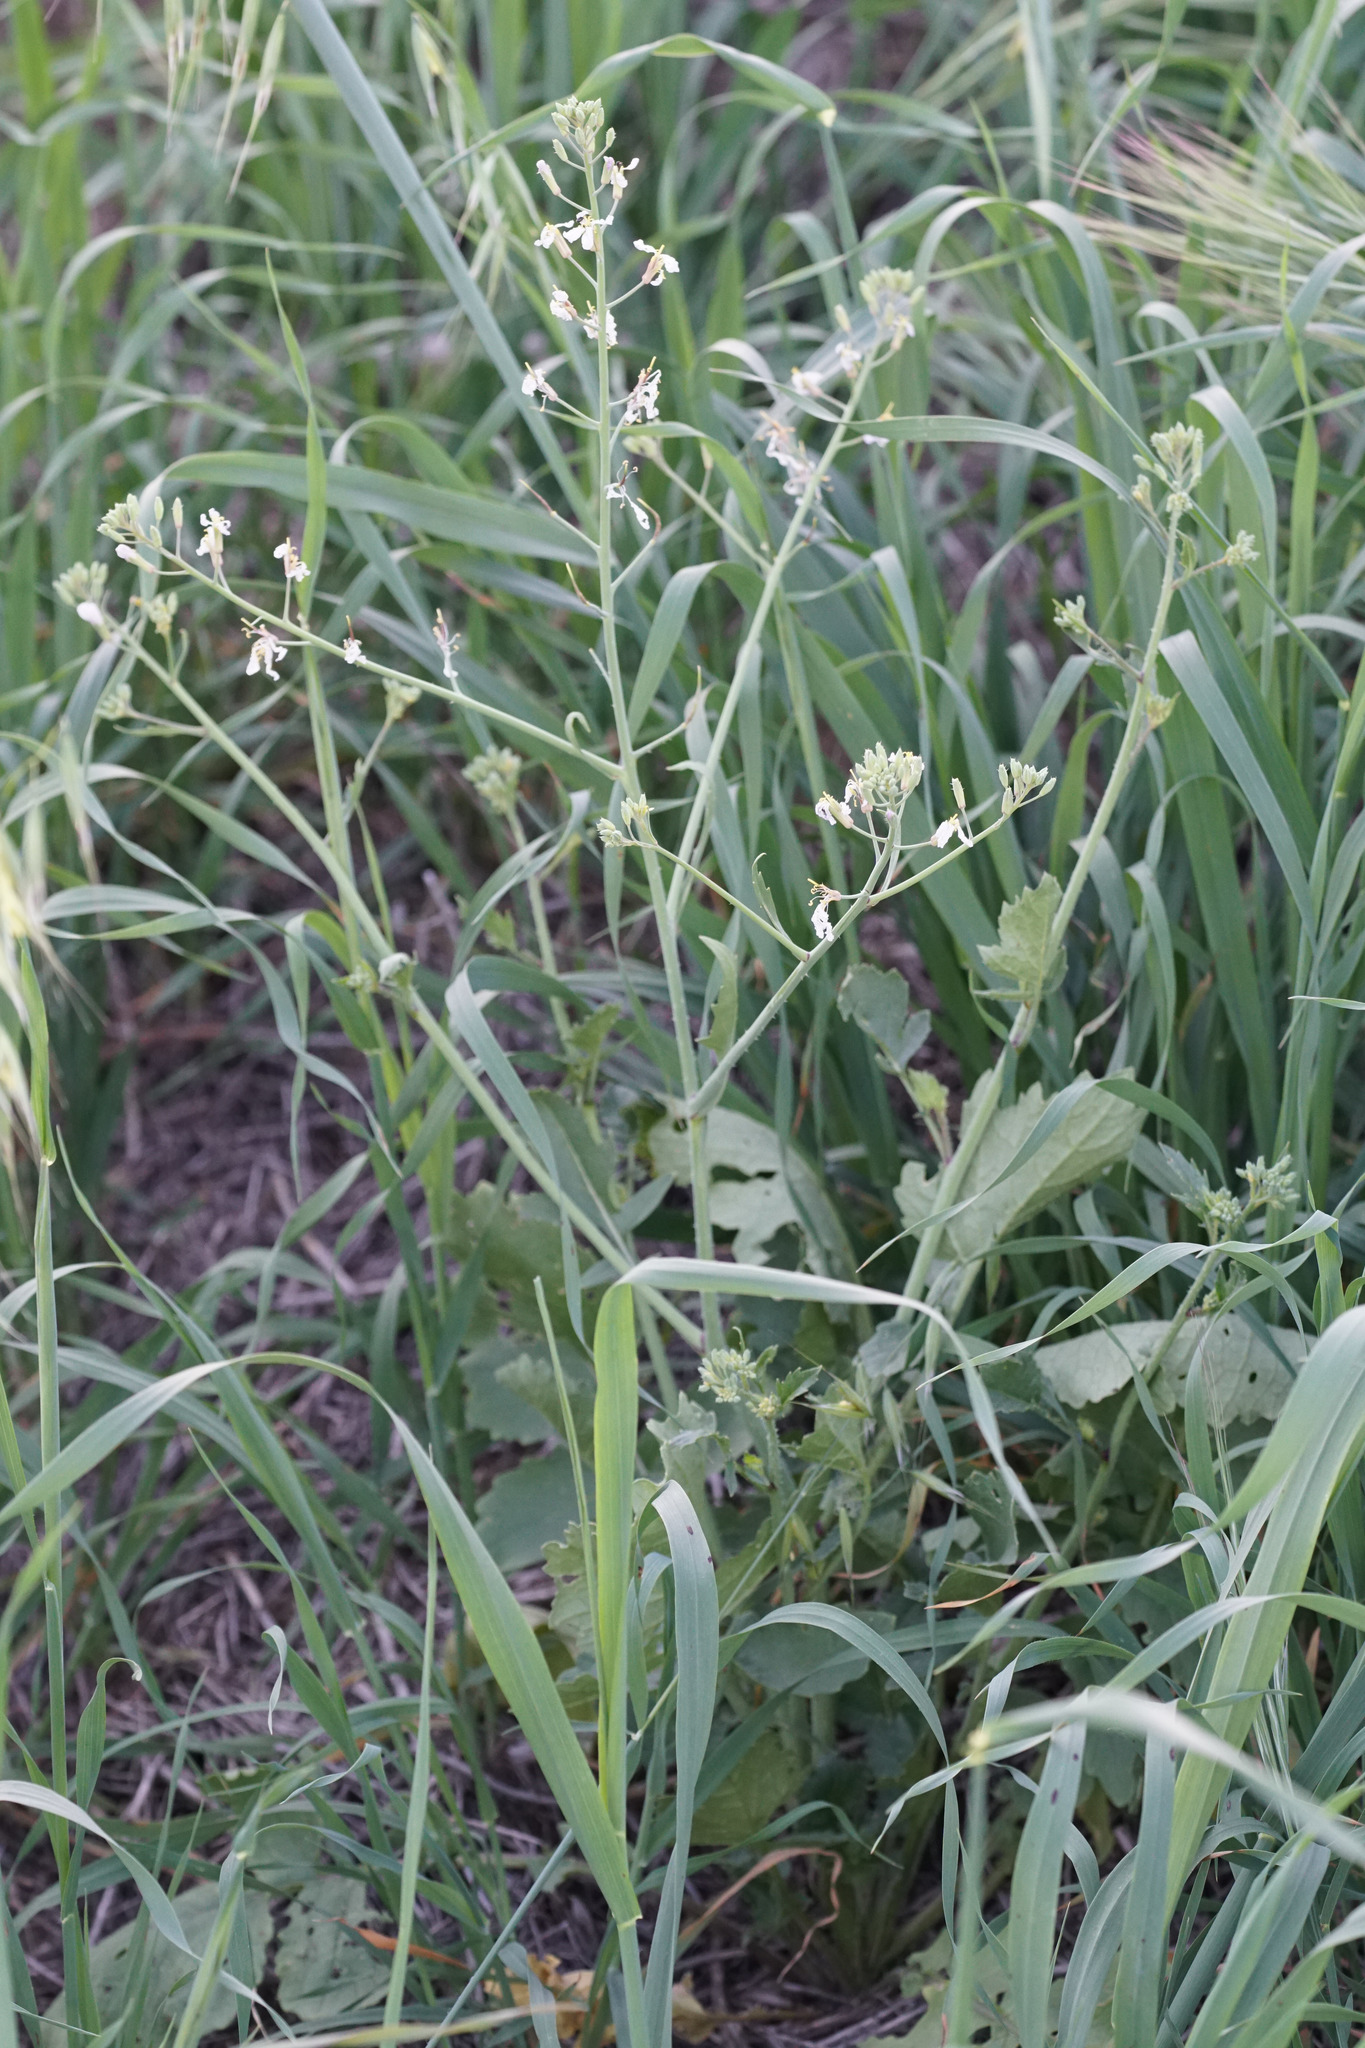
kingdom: Plantae
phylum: Tracheophyta
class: Magnoliopsida
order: Brassicales
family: Brassicaceae
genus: Raphanus
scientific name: Raphanus sativus
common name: Cultivated radish
